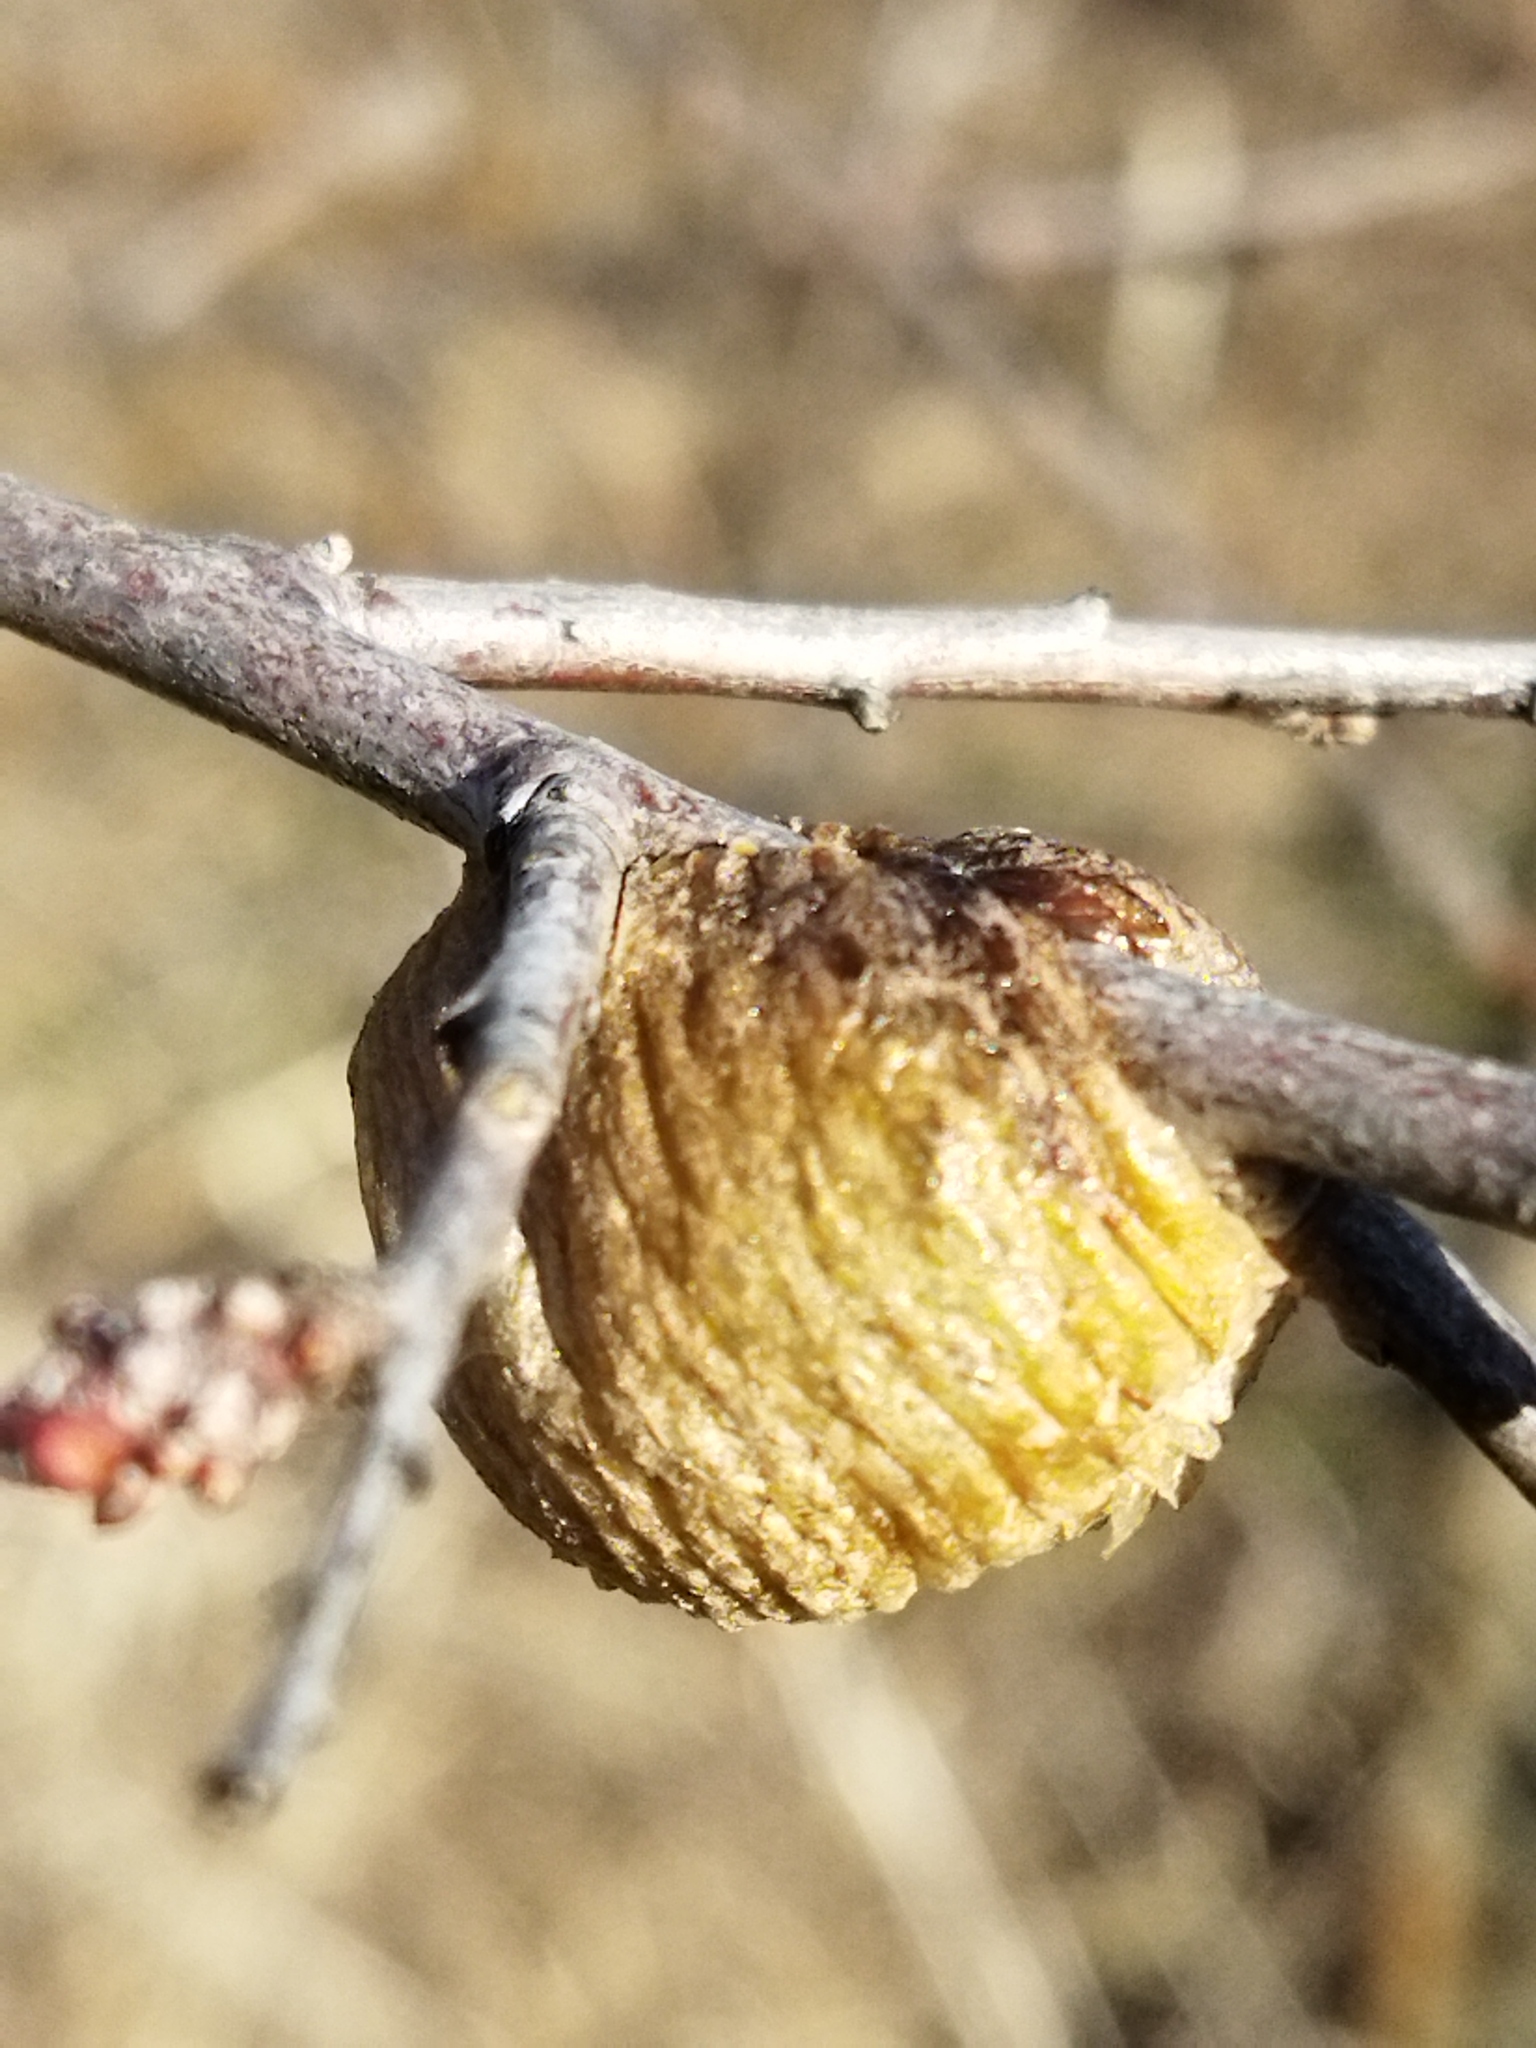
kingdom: Animalia
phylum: Arthropoda
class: Insecta
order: Mantodea
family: Mantidae
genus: Hierodula
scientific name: Hierodula transcaucasica
